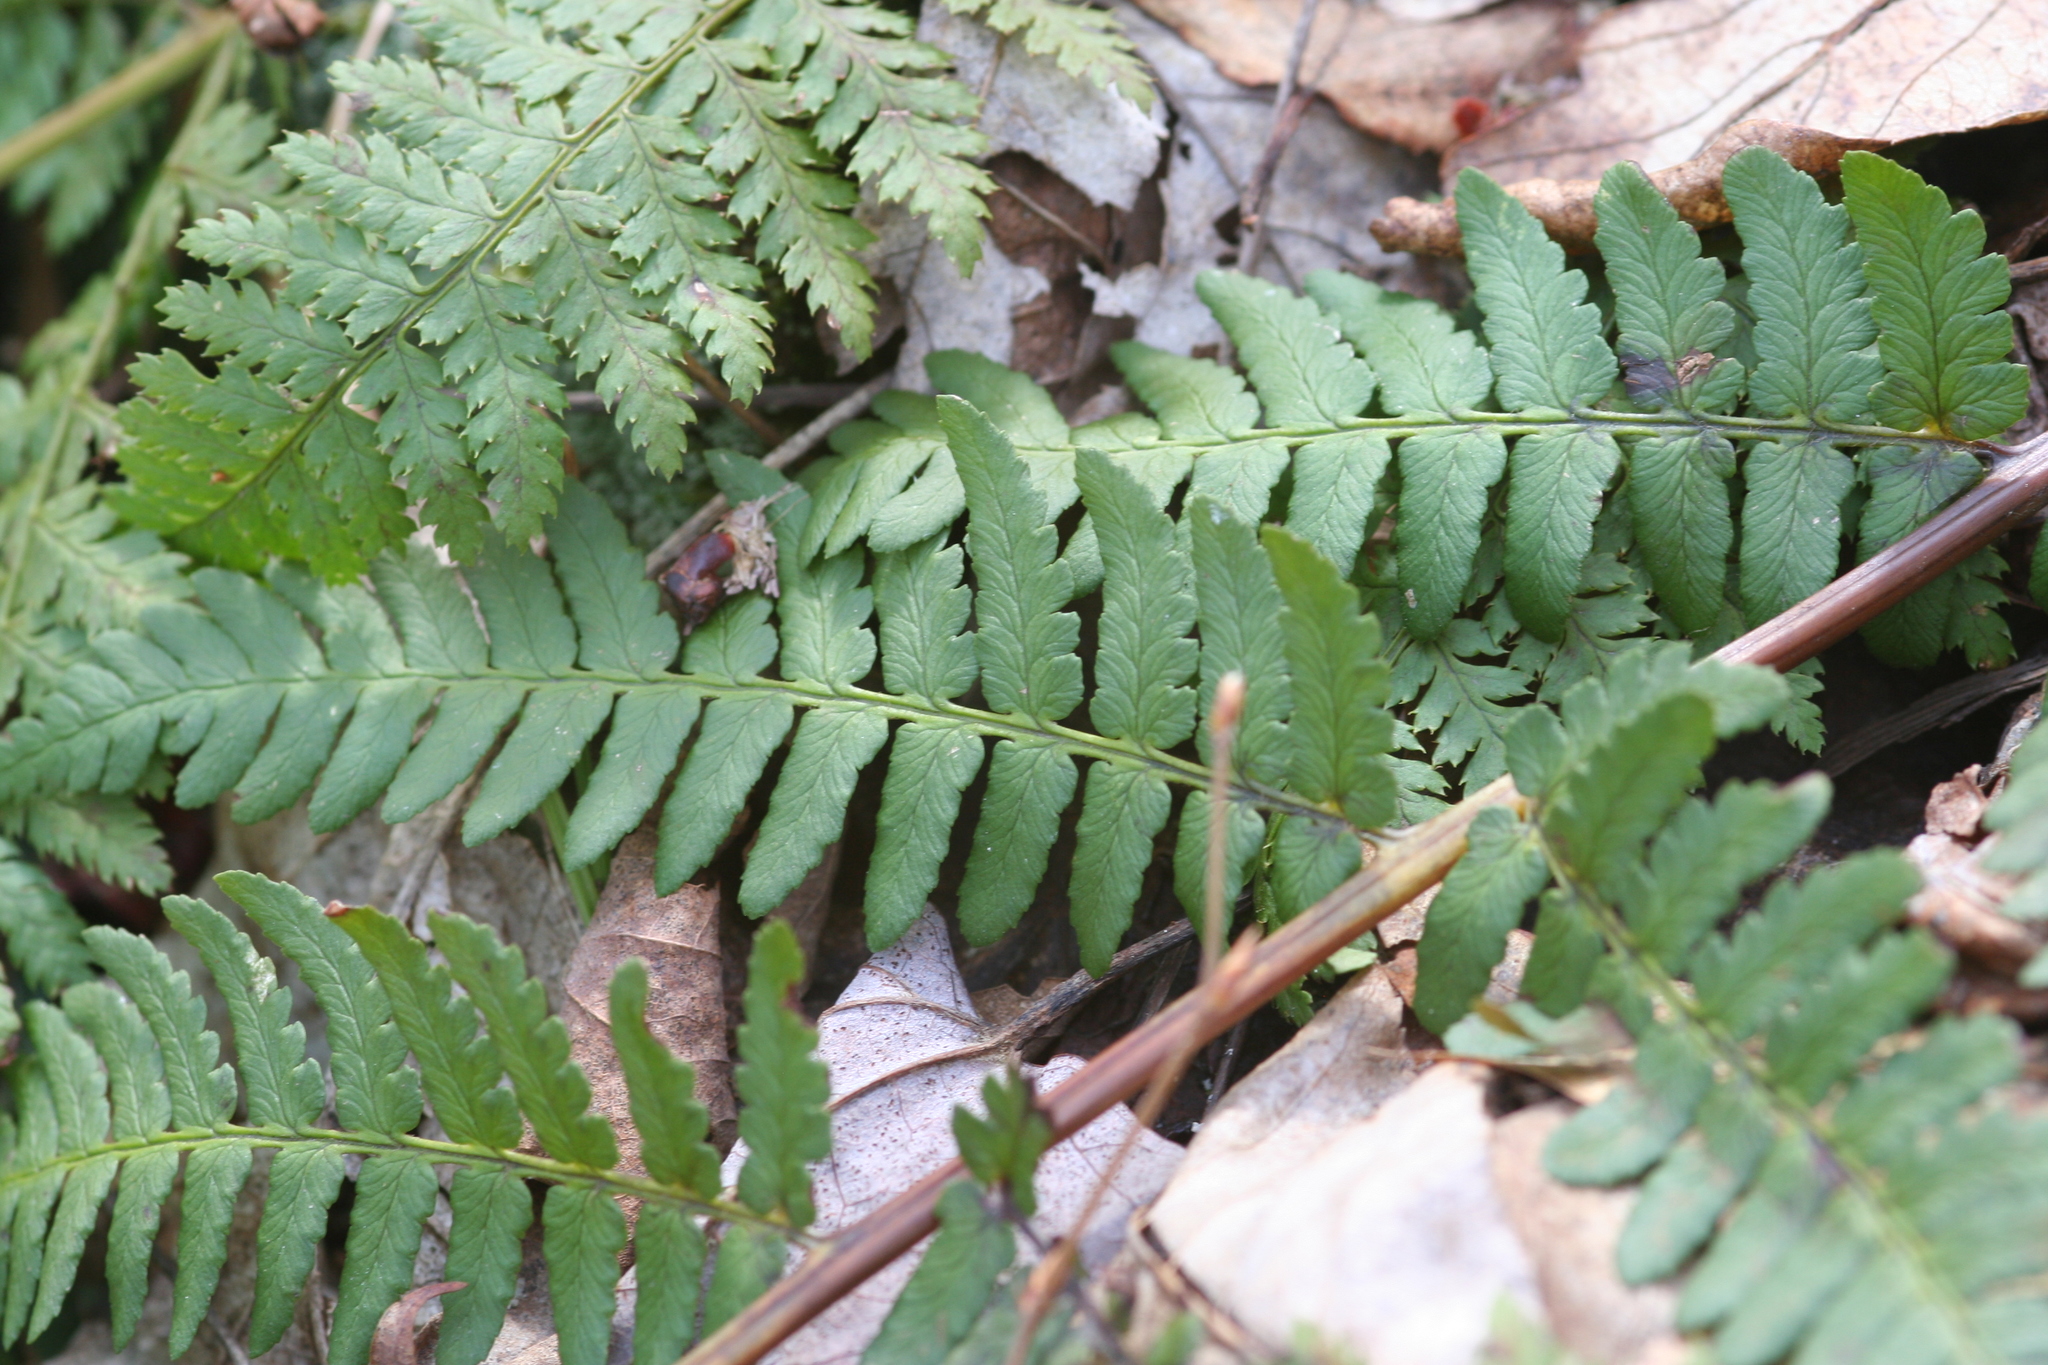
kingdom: Plantae
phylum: Tracheophyta
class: Polypodiopsida
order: Polypodiales
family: Dryopteridaceae
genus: Dryopteris
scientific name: Dryopteris marginalis
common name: Marginal wood fern
